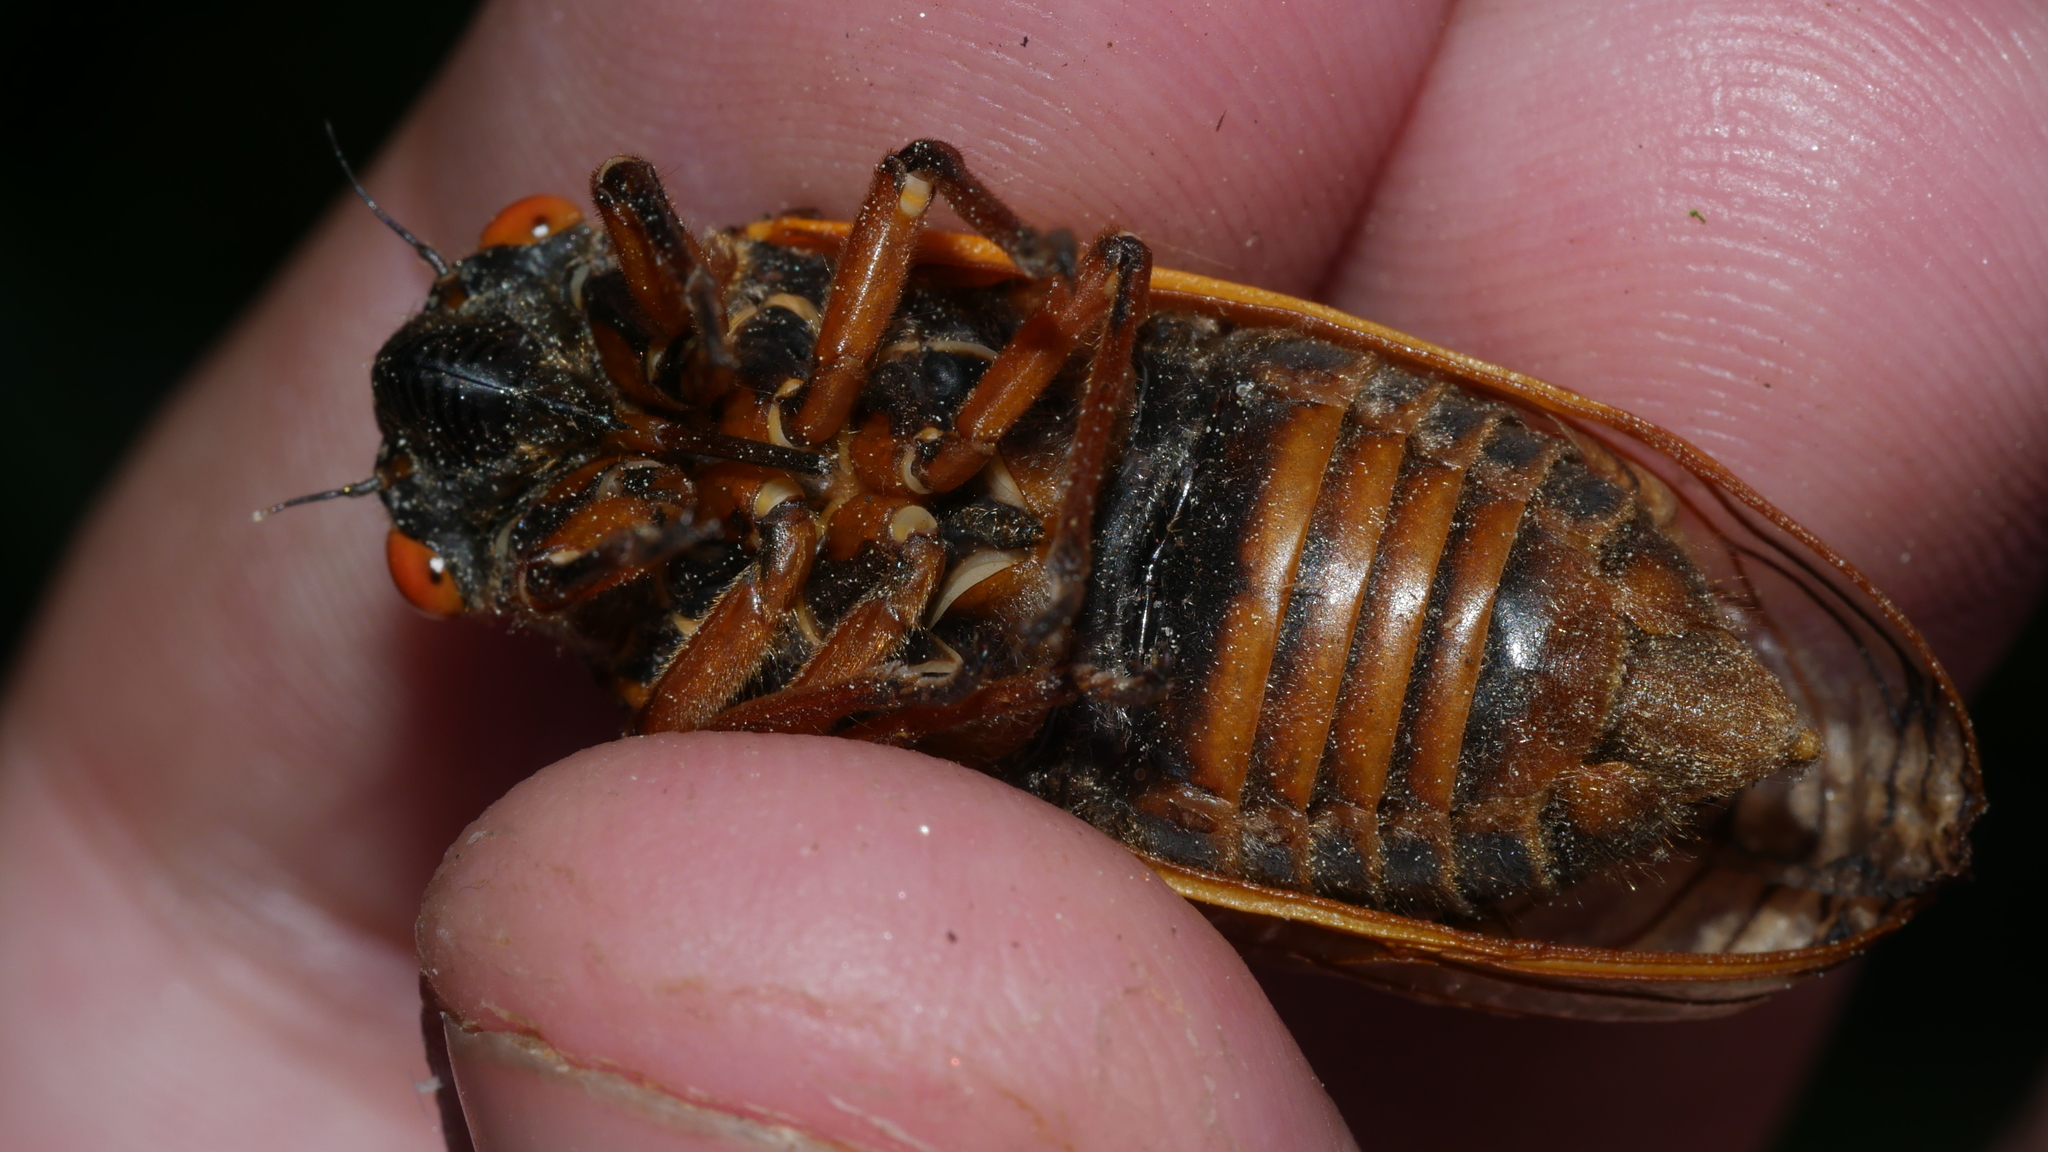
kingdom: Animalia
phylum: Arthropoda
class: Insecta
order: Hemiptera
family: Cicadidae
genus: Magicicada
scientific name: Magicicada septendecim
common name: Periodical cicada
